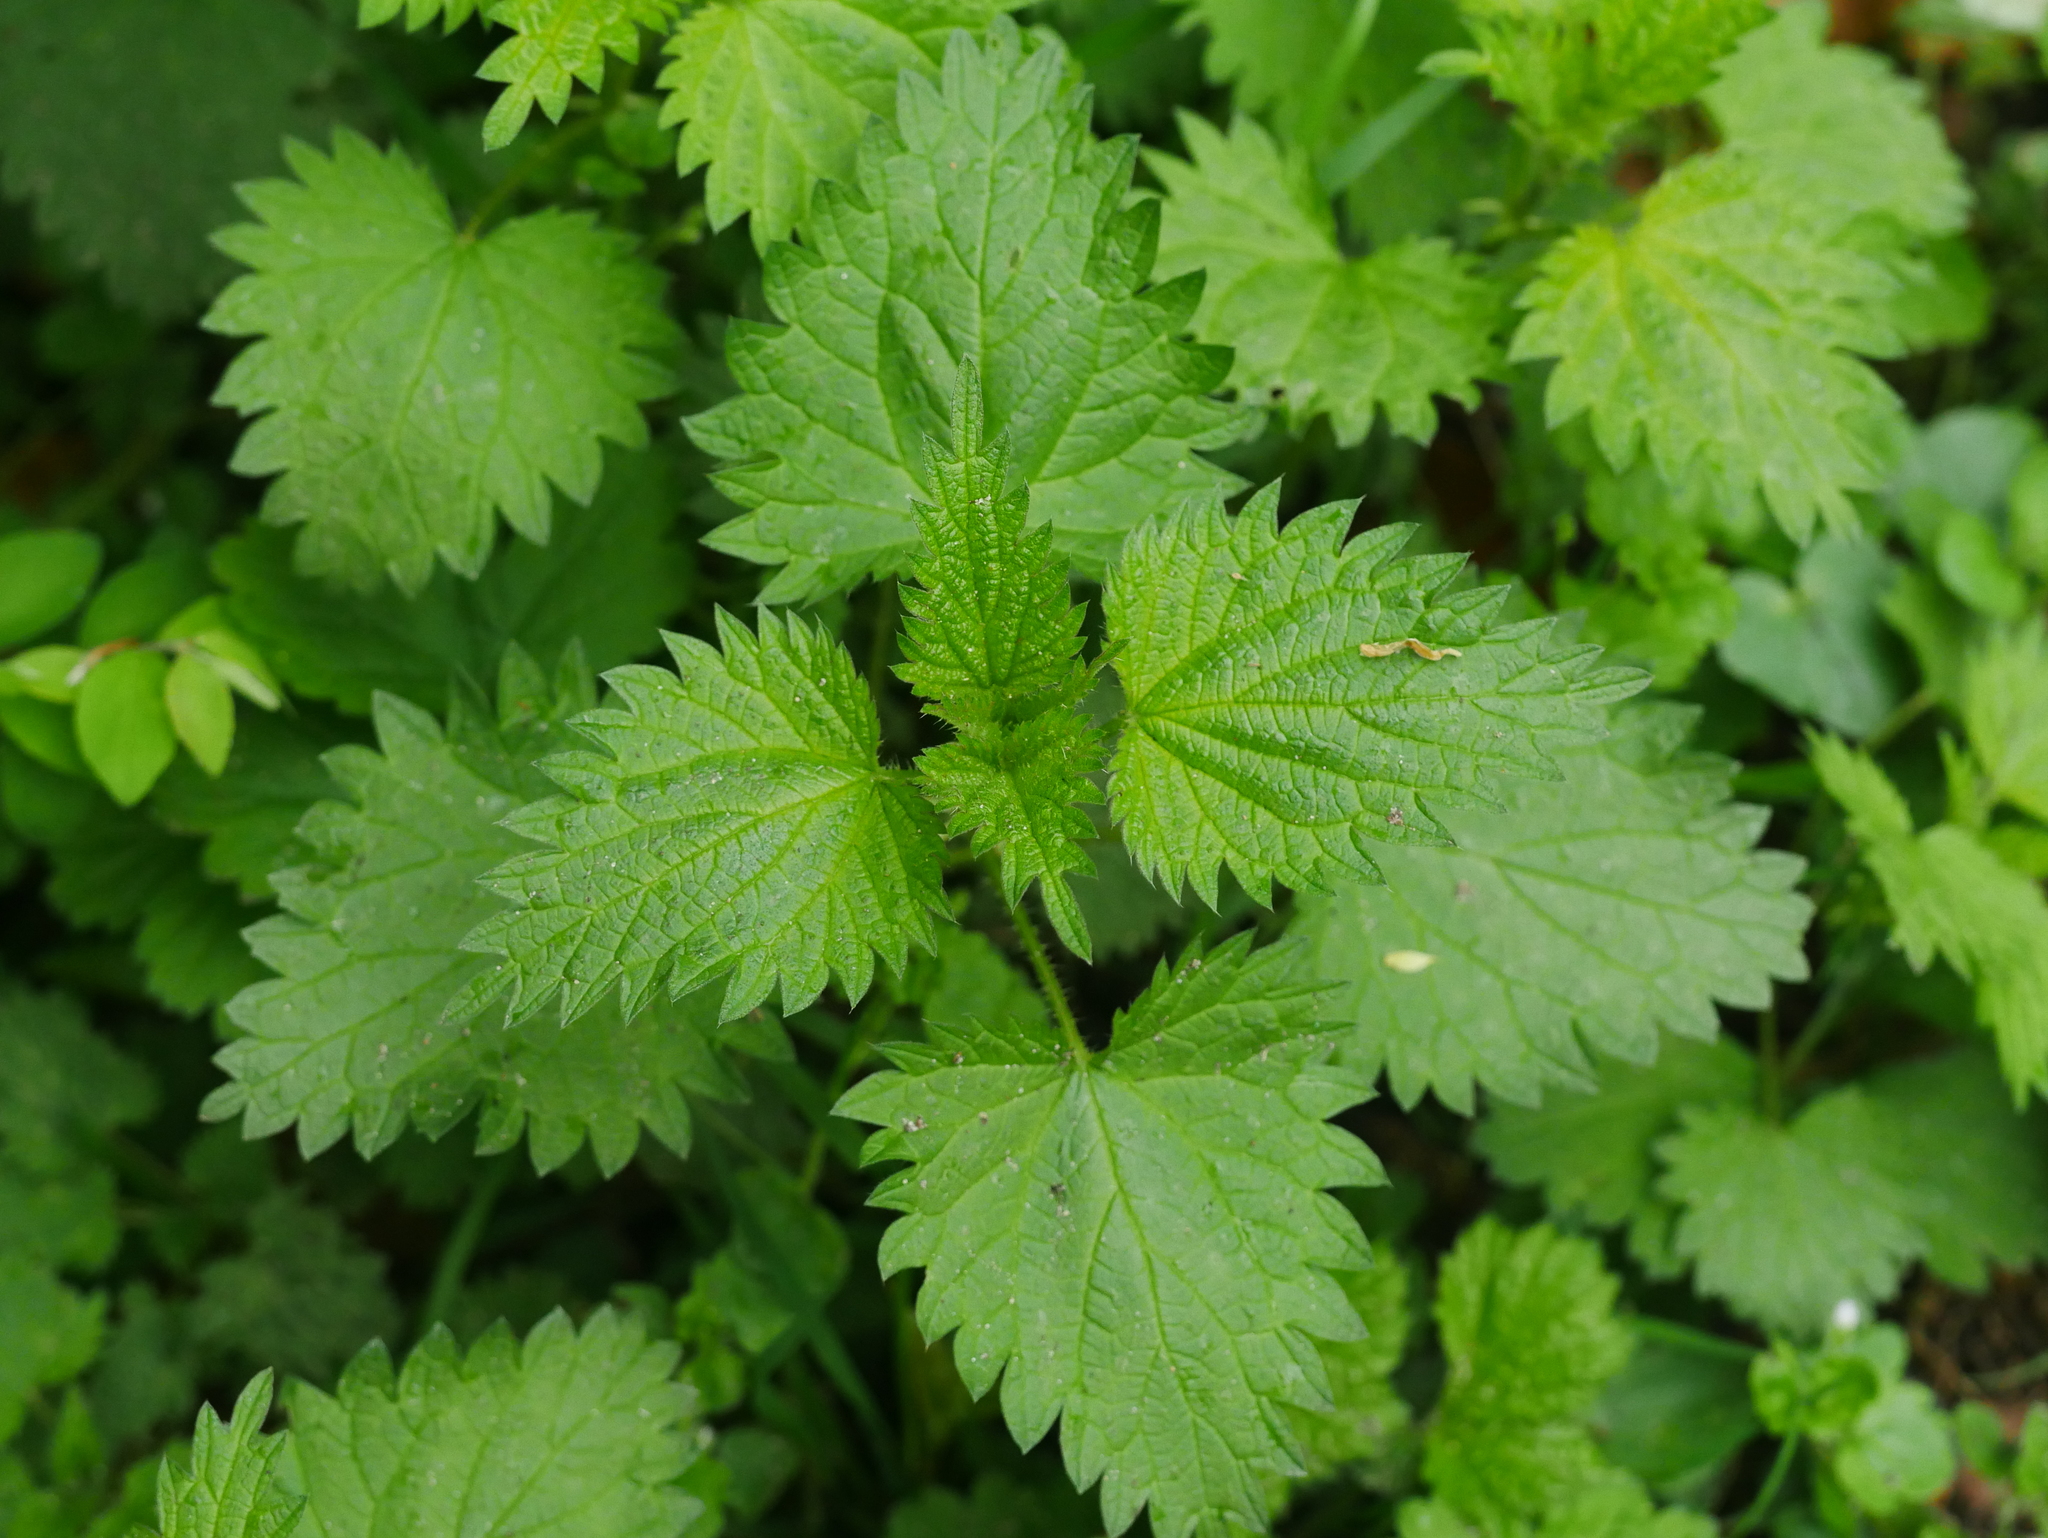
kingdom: Plantae
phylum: Tracheophyta
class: Magnoliopsida
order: Rosales
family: Urticaceae
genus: Urtica
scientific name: Urtica dioica
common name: Common nettle
